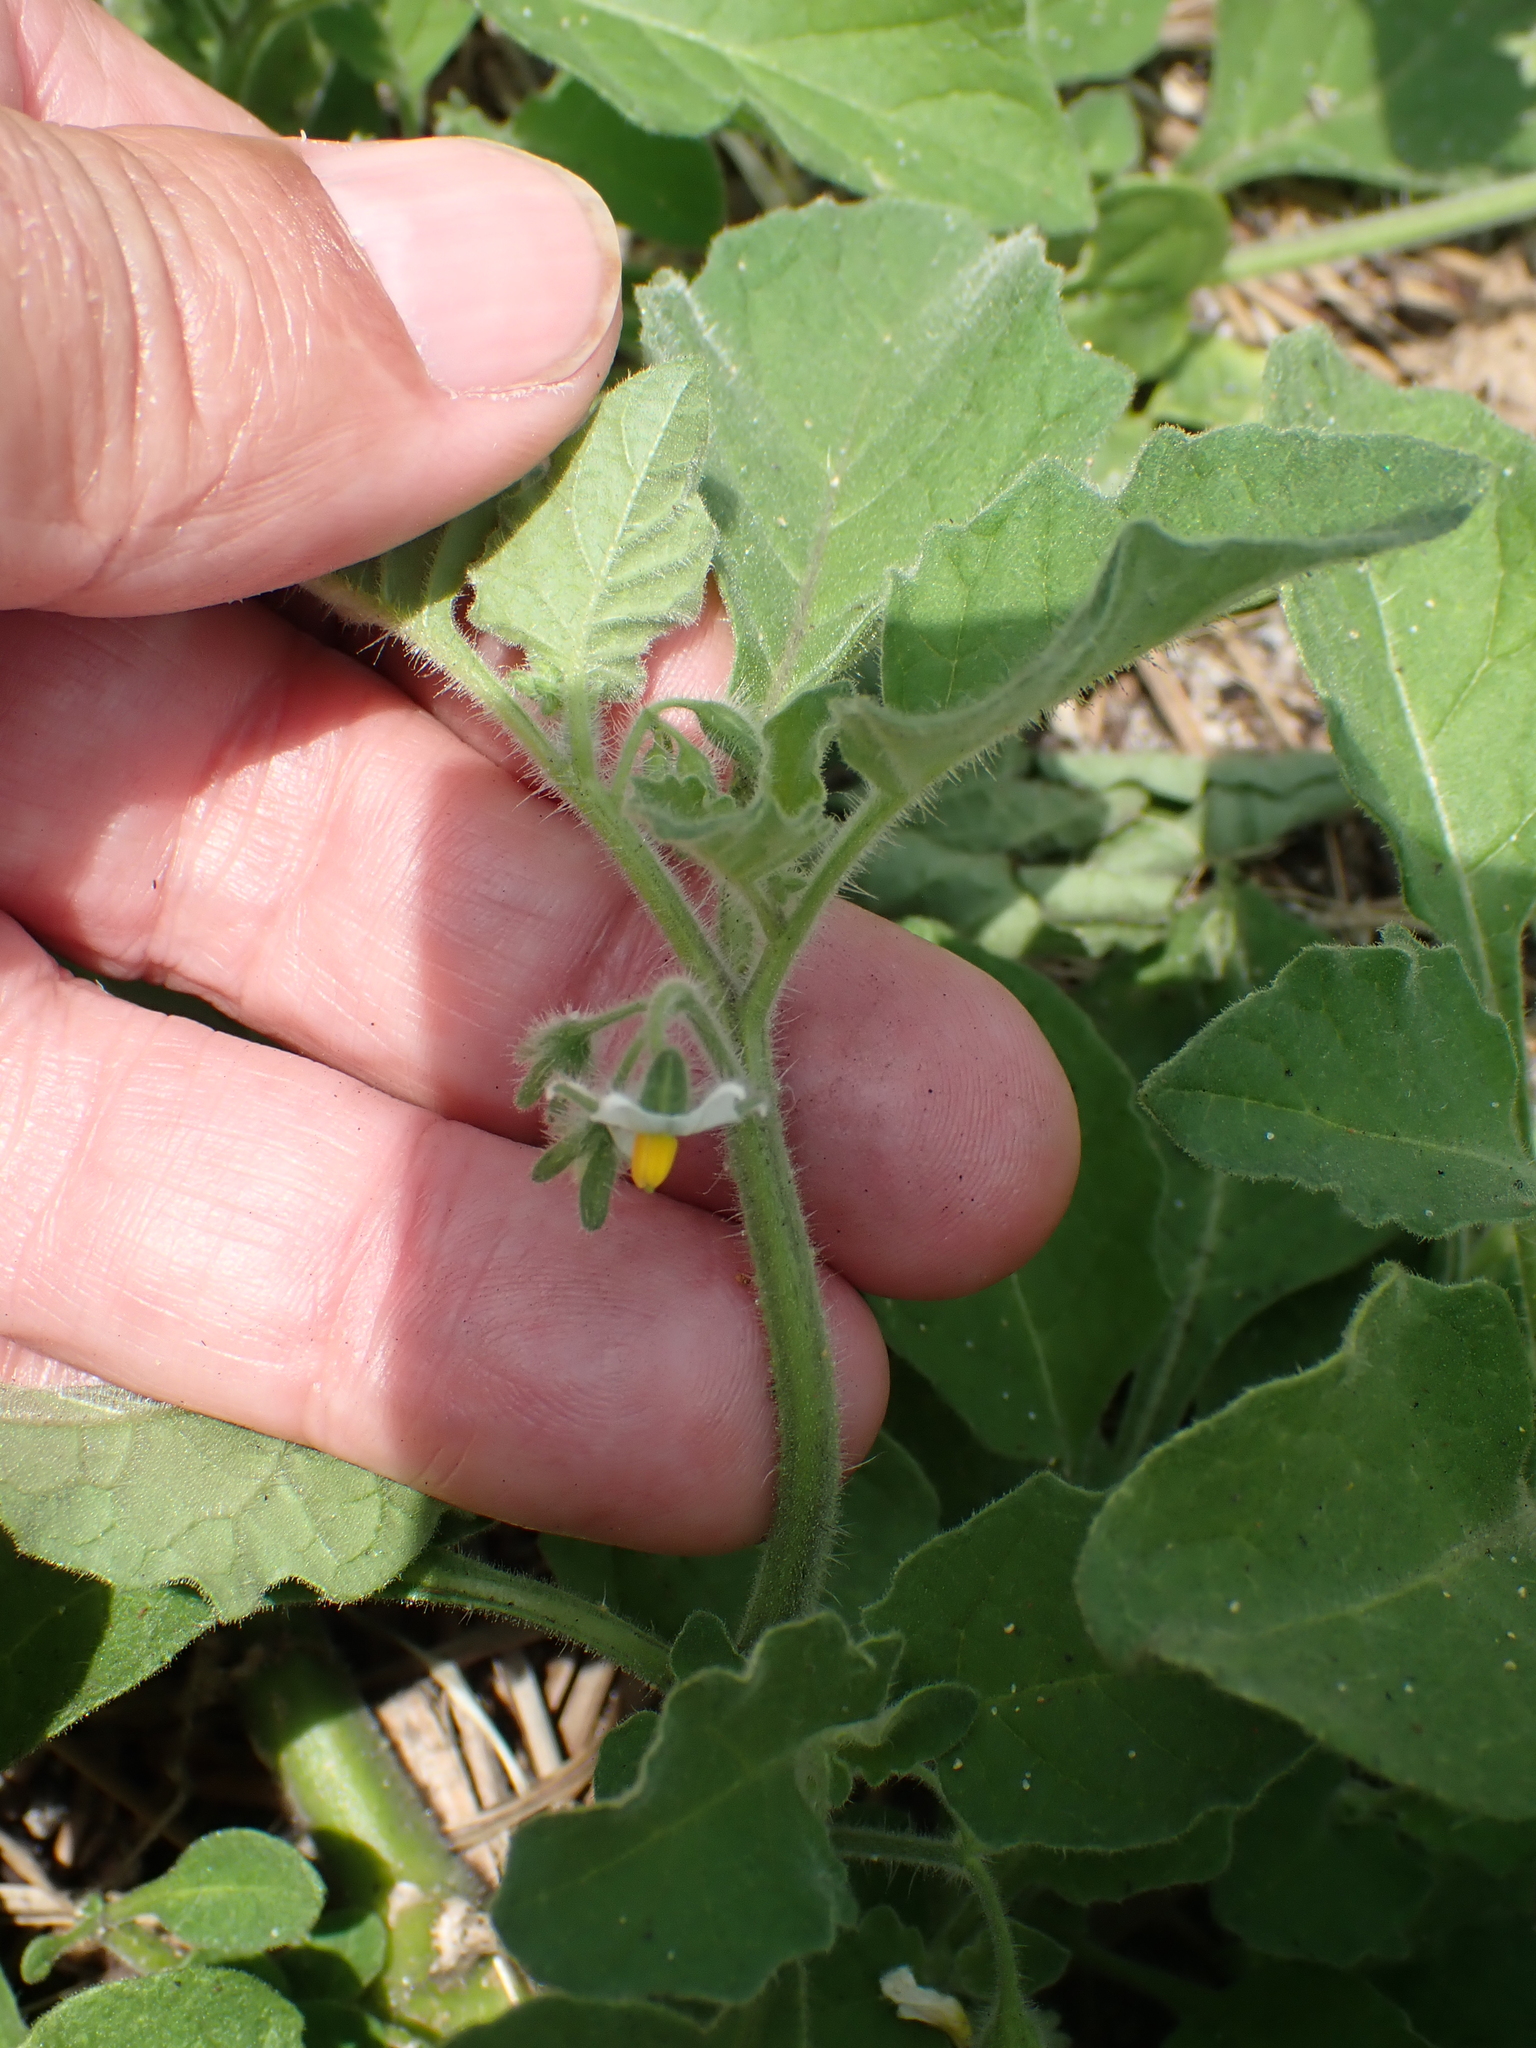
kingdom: Plantae
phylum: Tracheophyta
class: Magnoliopsida
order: Solanales
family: Solanaceae
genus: Solanum
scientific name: Solanum sarrachoides
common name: Leafy-fruited nightshade
